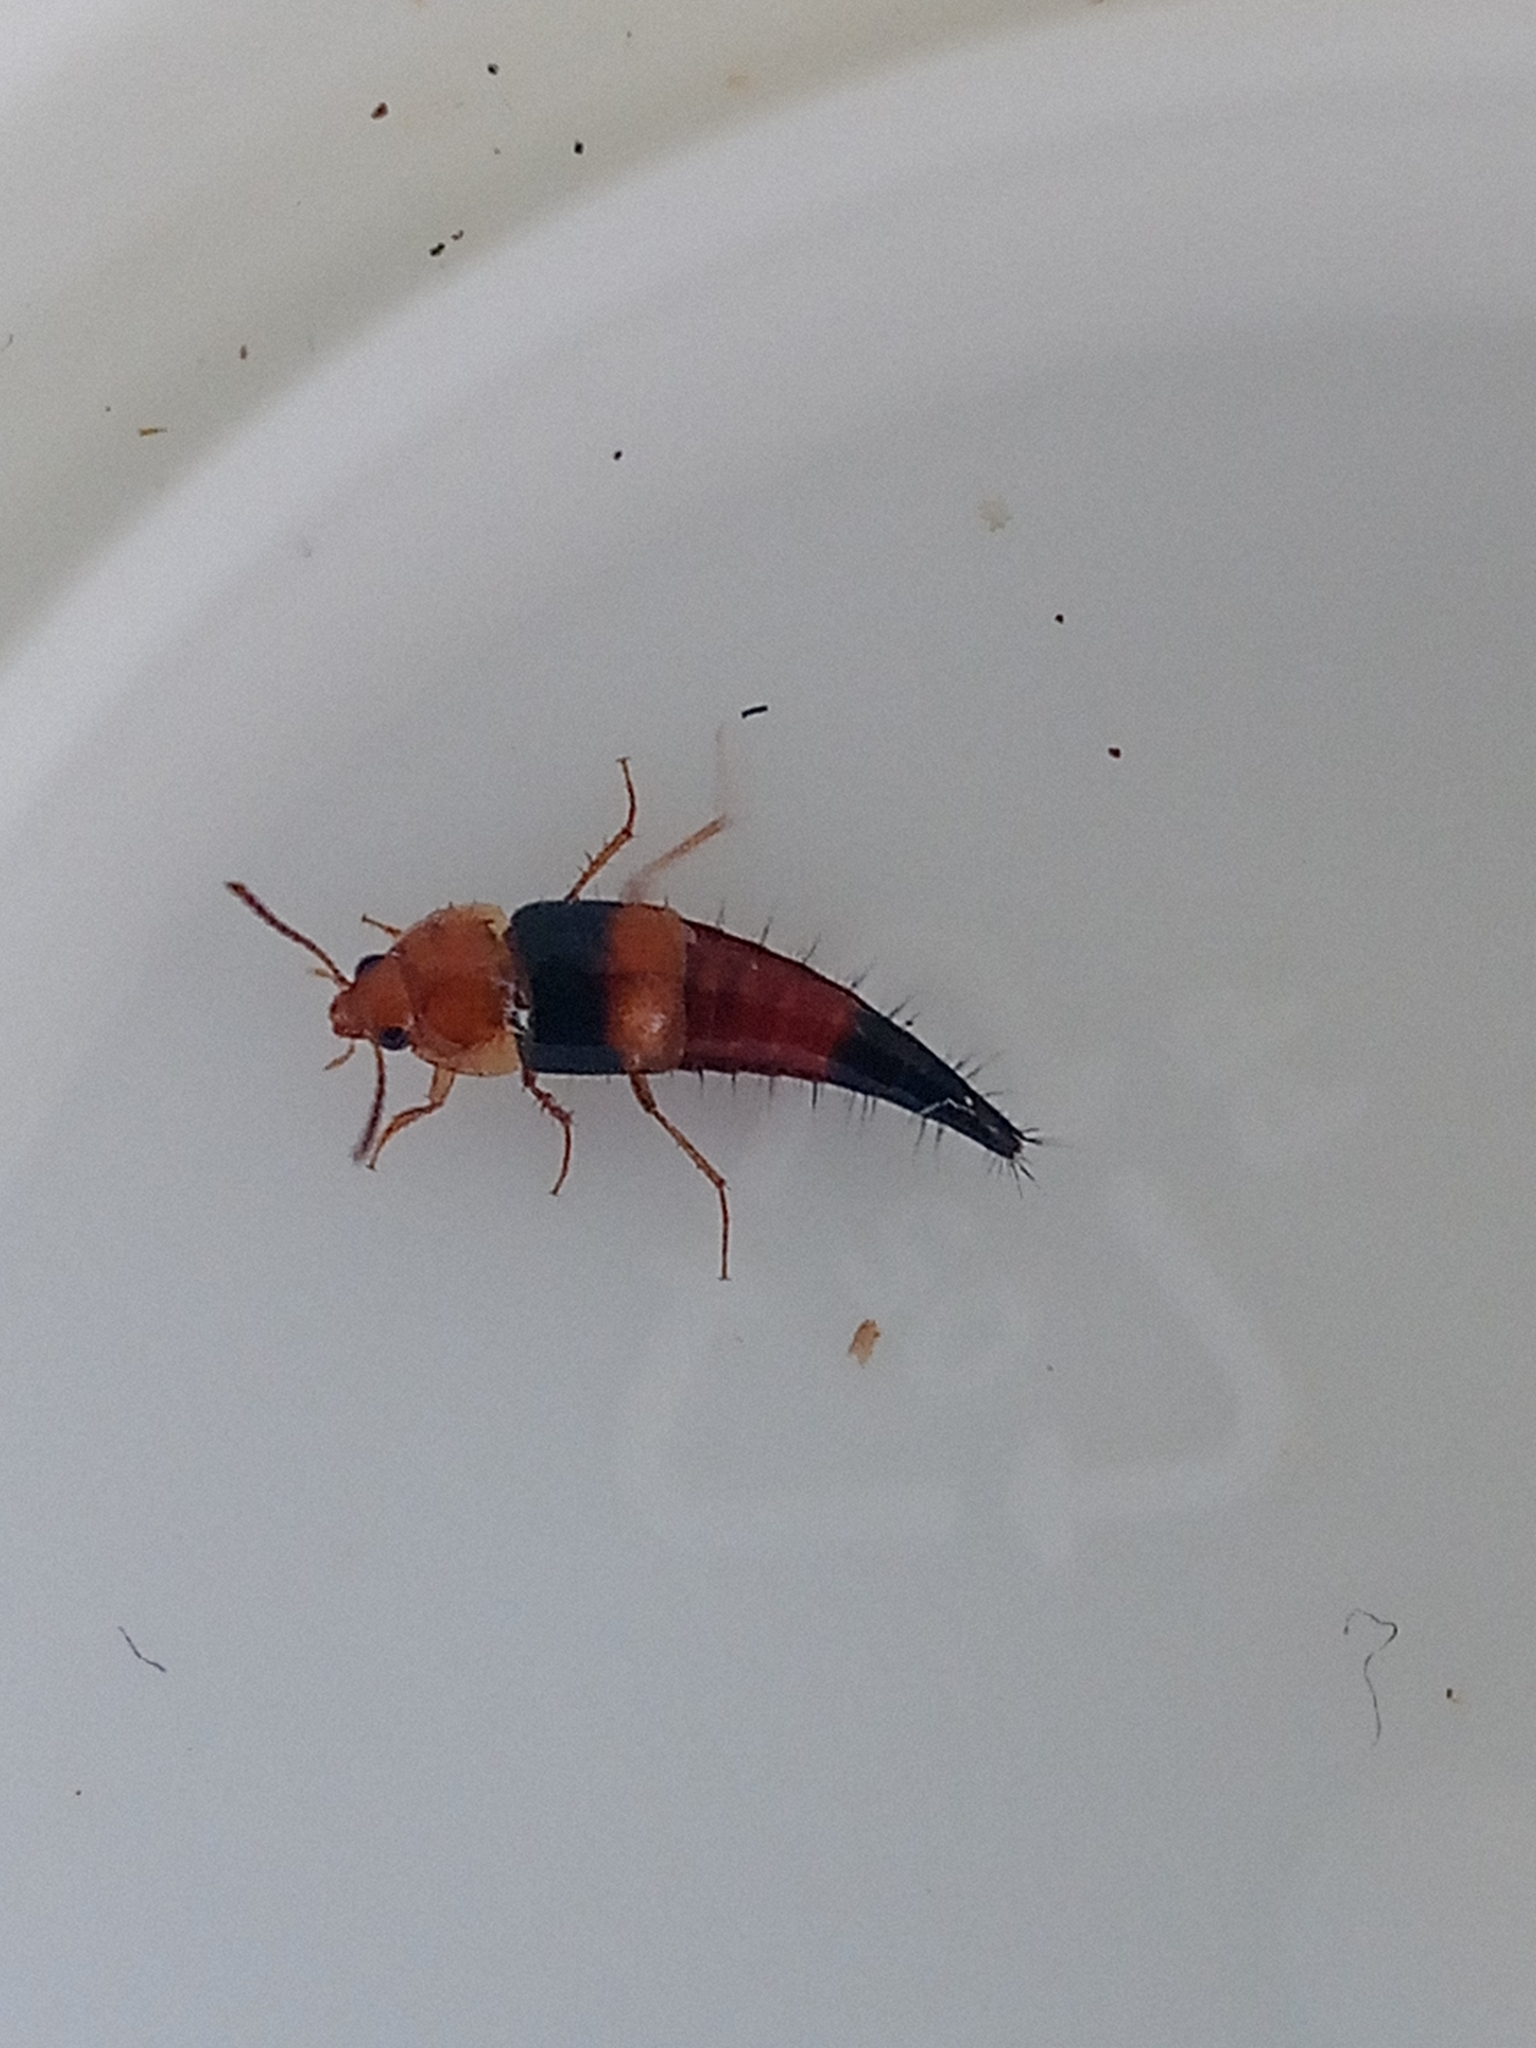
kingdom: Animalia
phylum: Arthropoda
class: Insecta
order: Coleoptera
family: Staphylinidae
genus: Tachyporus
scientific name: Tachyporus obtusus
